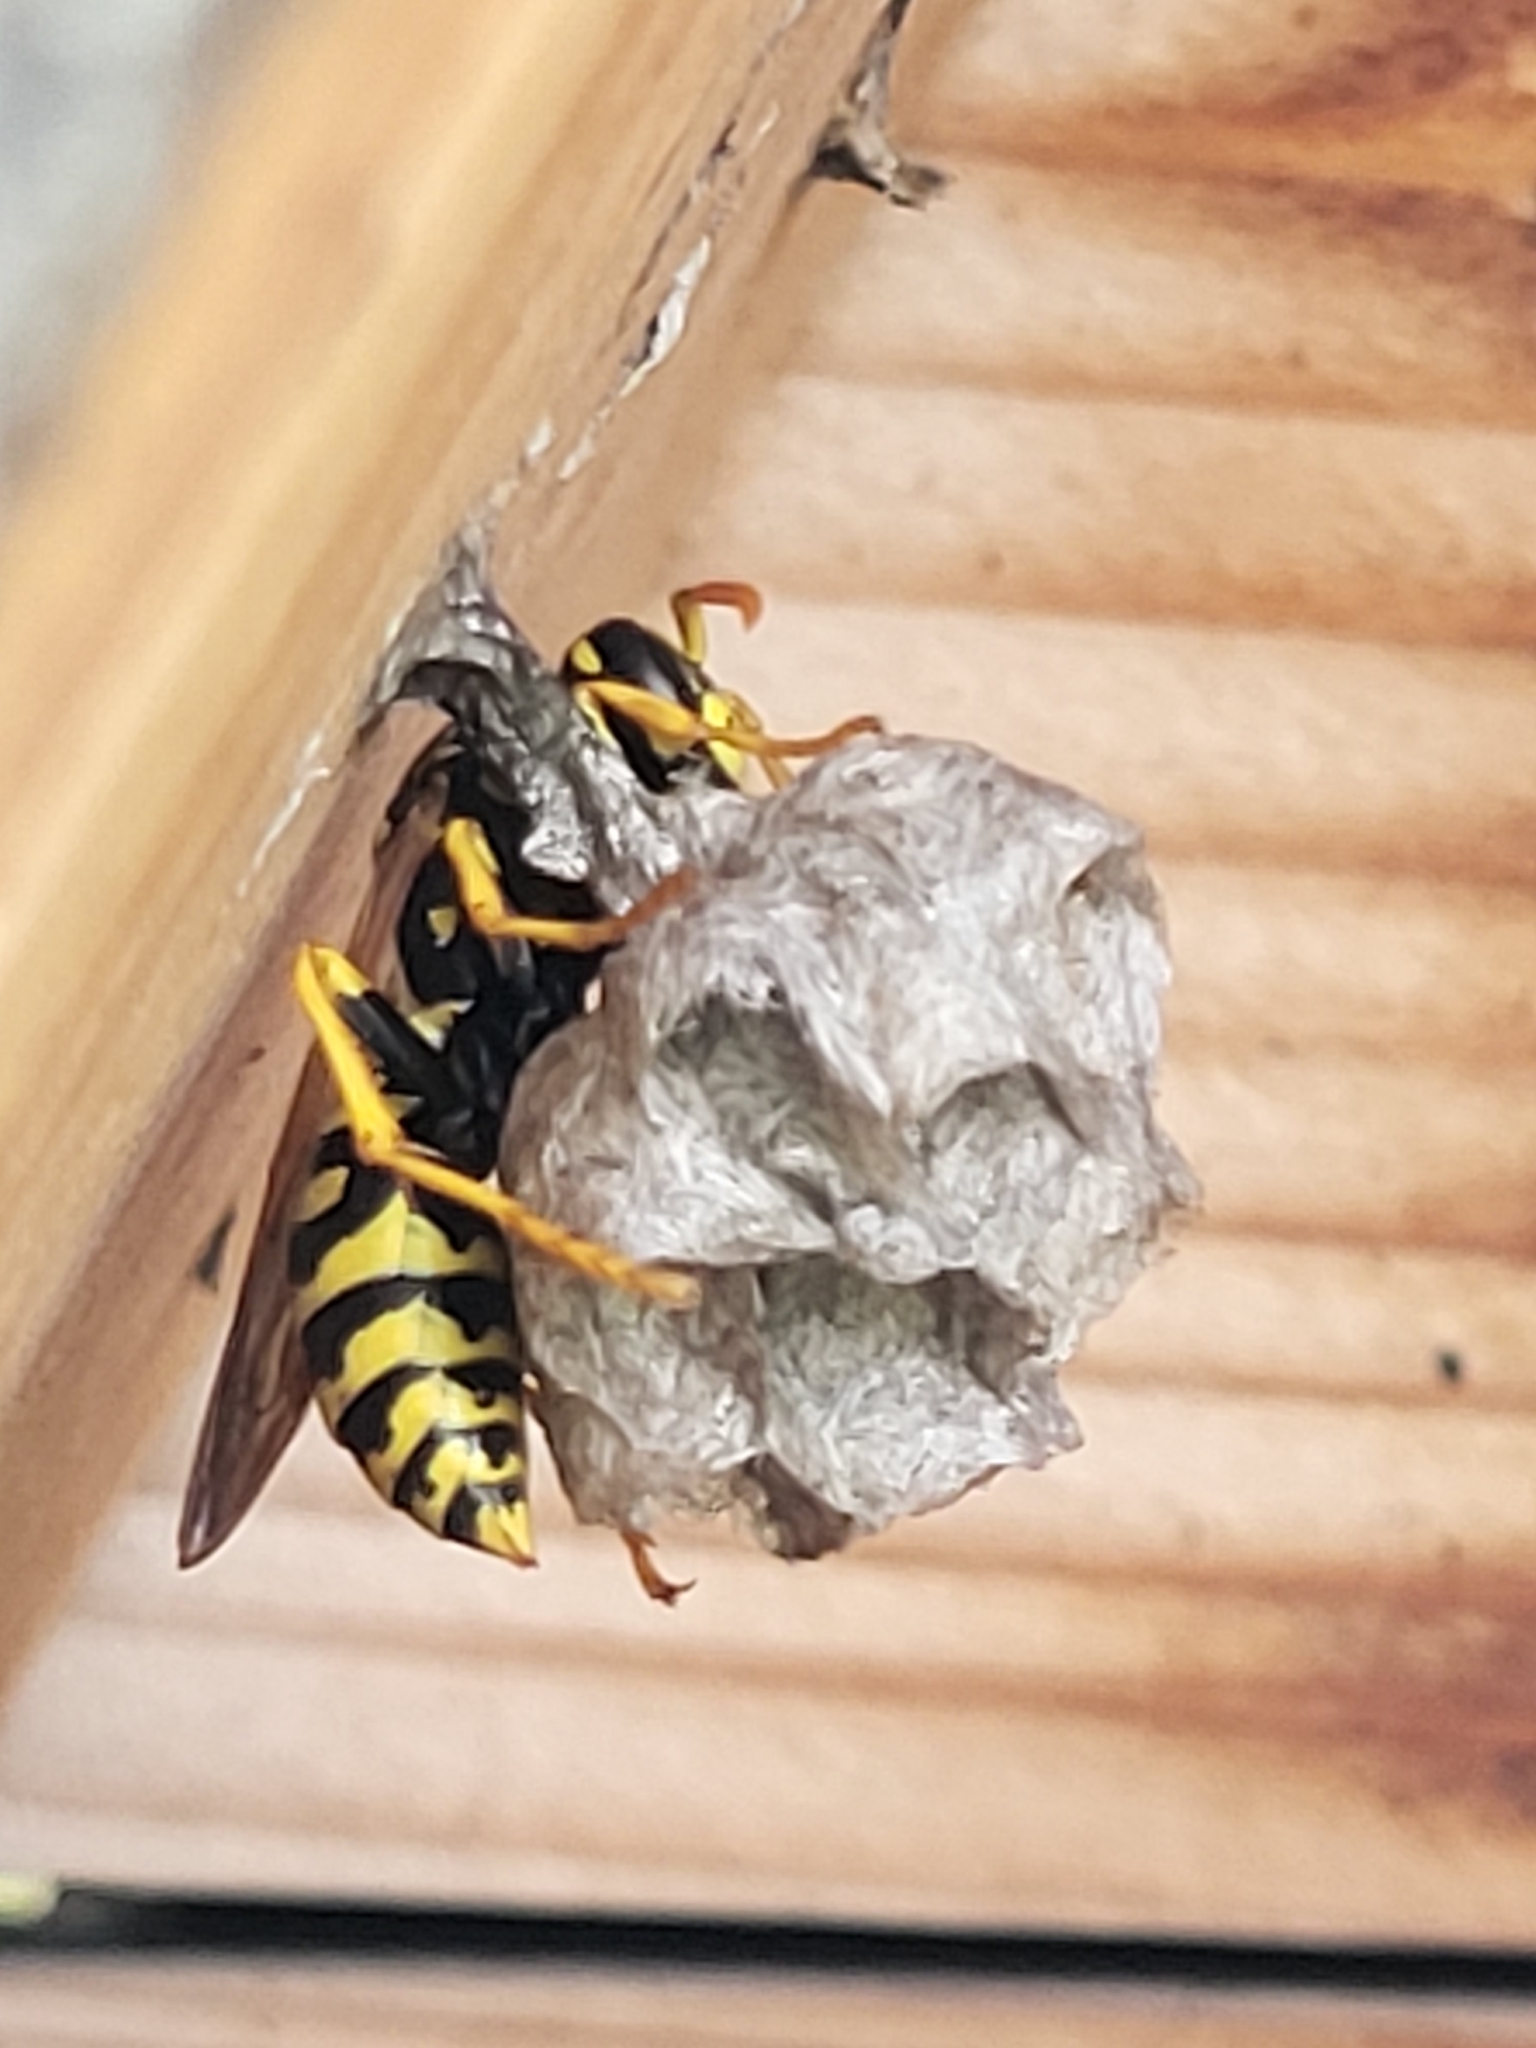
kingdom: Animalia
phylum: Arthropoda
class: Insecta
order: Hymenoptera
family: Eumenidae
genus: Polistes
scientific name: Polistes dominula
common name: Paper wasp
